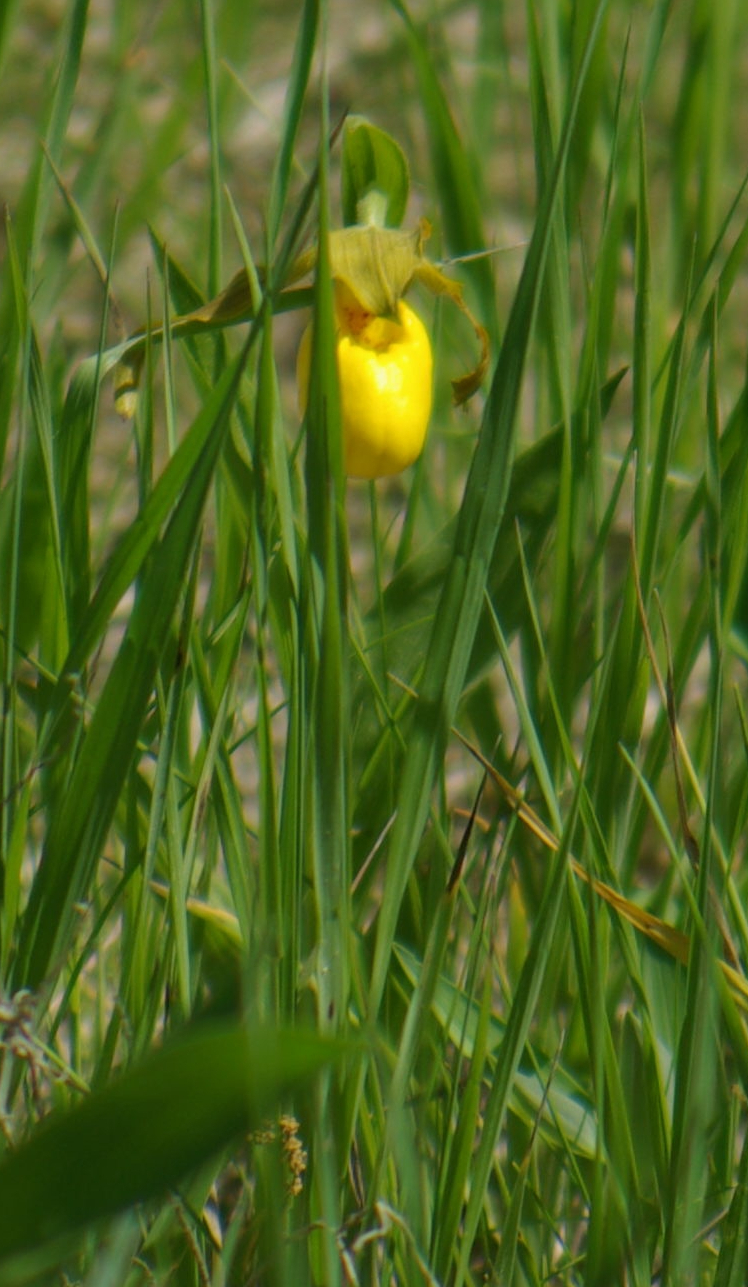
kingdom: Plantae
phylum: Tracheophyta
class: Liliopsida
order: Asparagales
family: Orchidaceae
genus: Cypripedium
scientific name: Cypripedium parviflorum
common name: American yellow lady's-slipper
